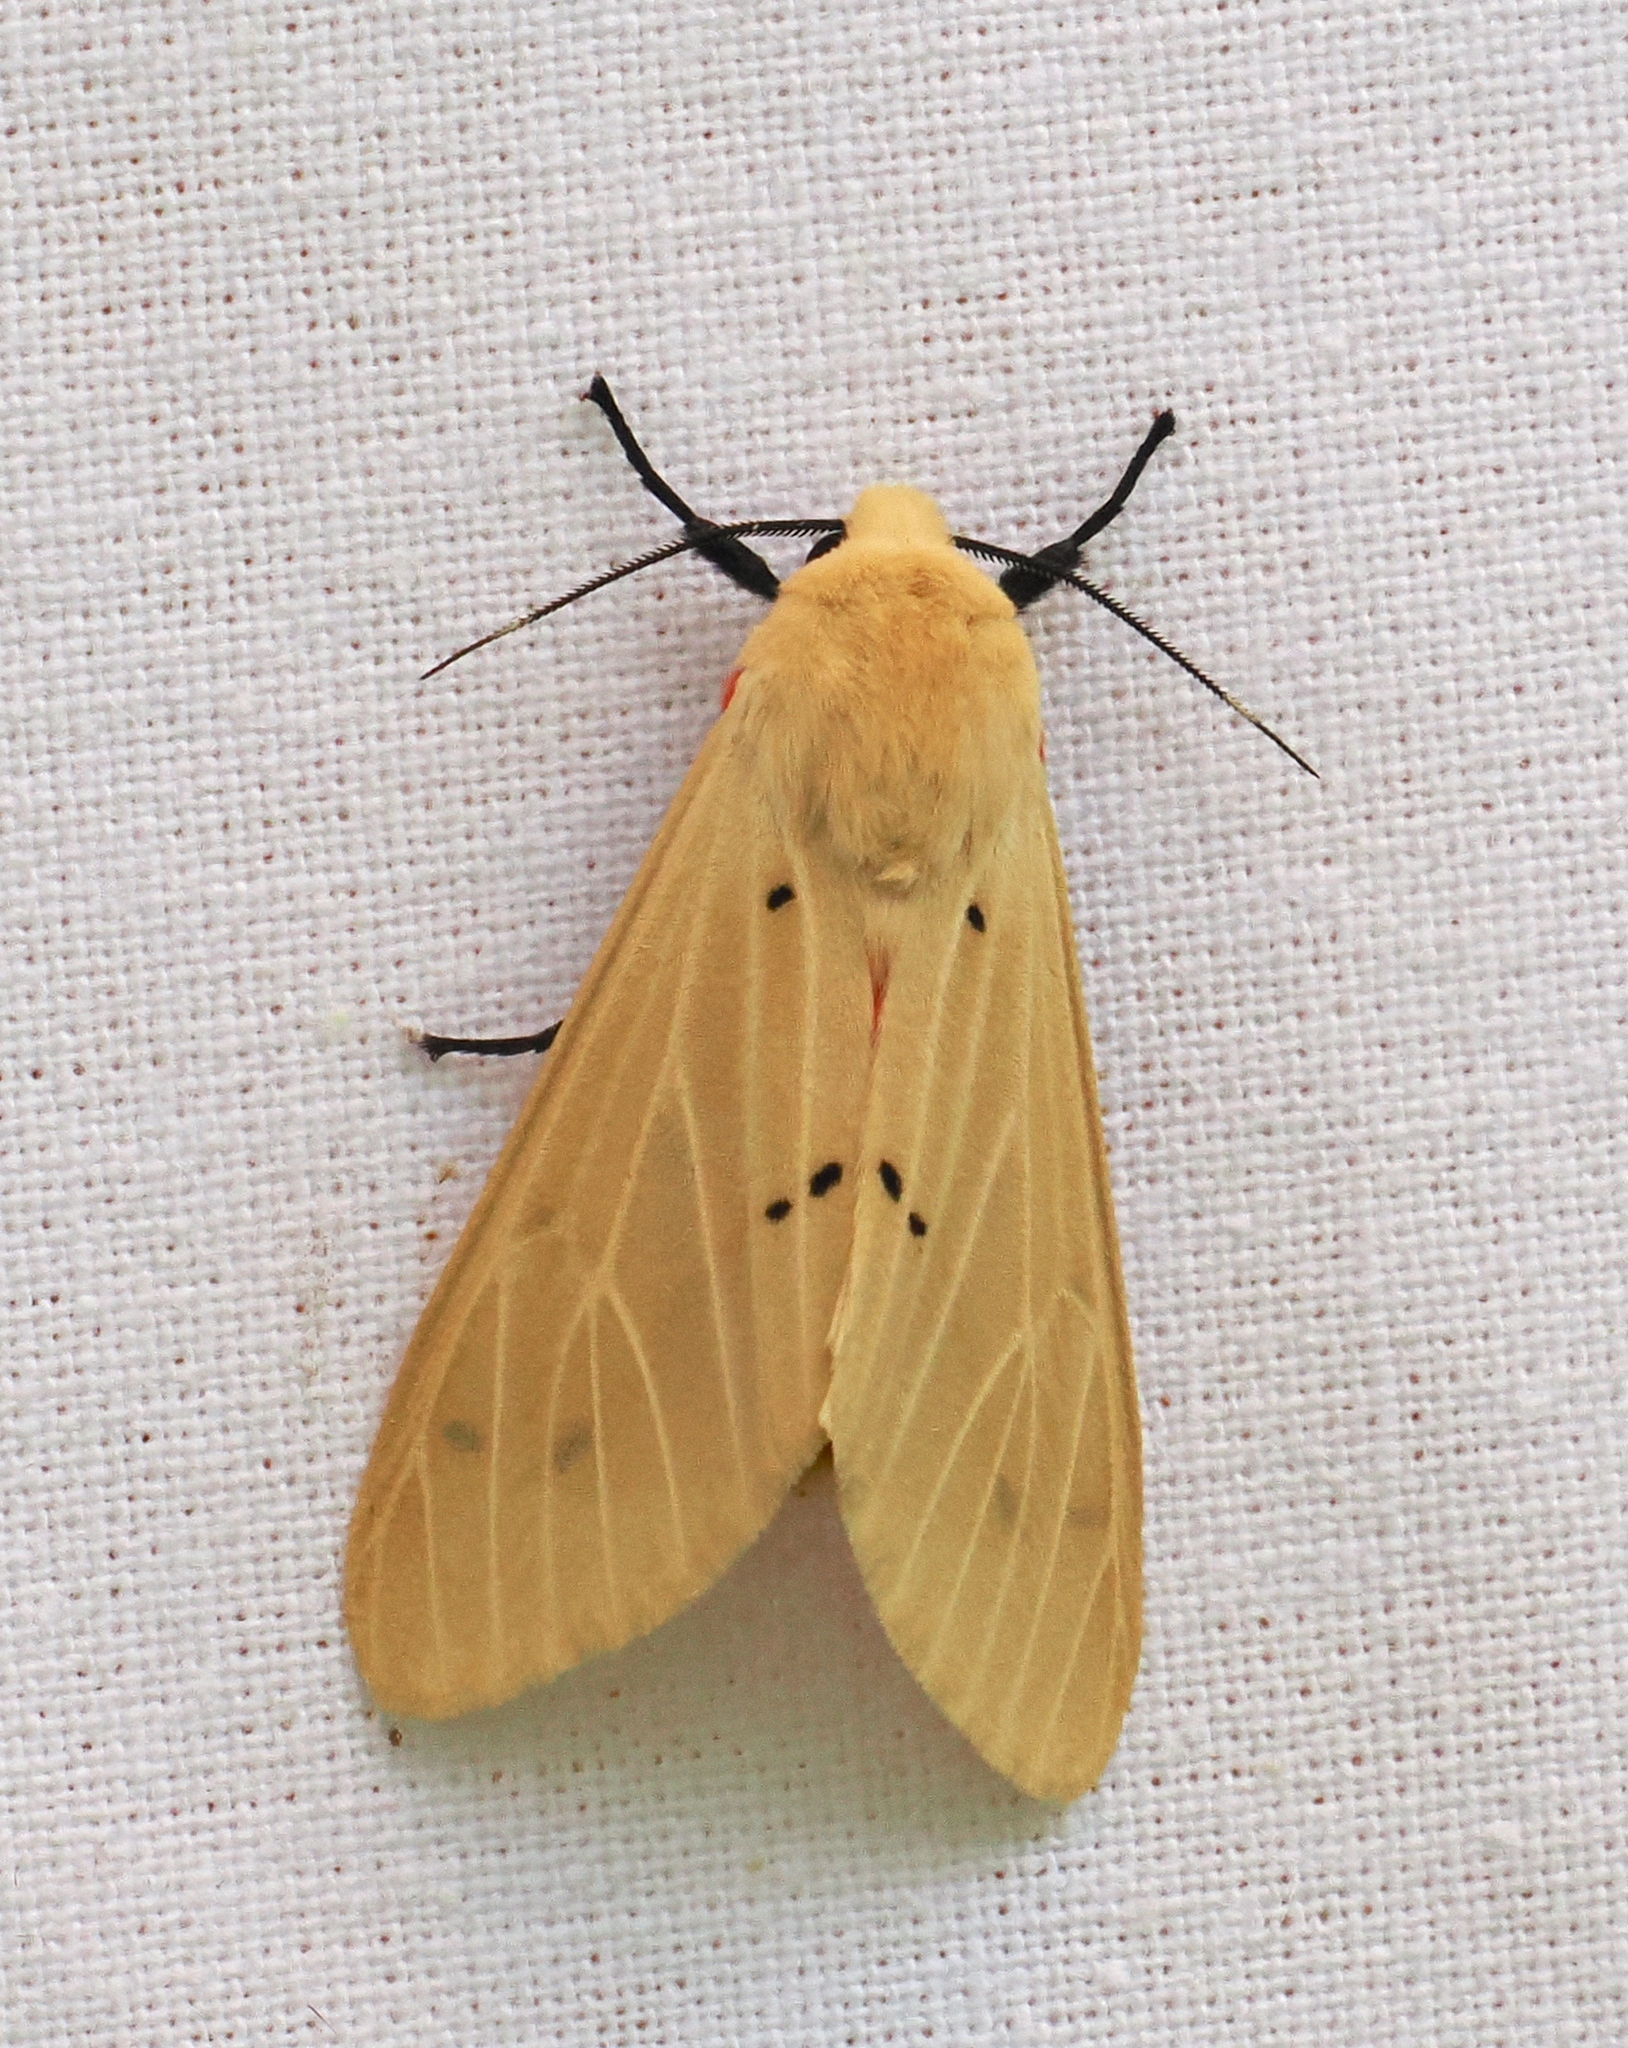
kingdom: Animalia
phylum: Arthropoda
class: Insecta
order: Lepidoptera
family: Erebidae
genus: Spilosoma
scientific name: Spilosoma eldorado
